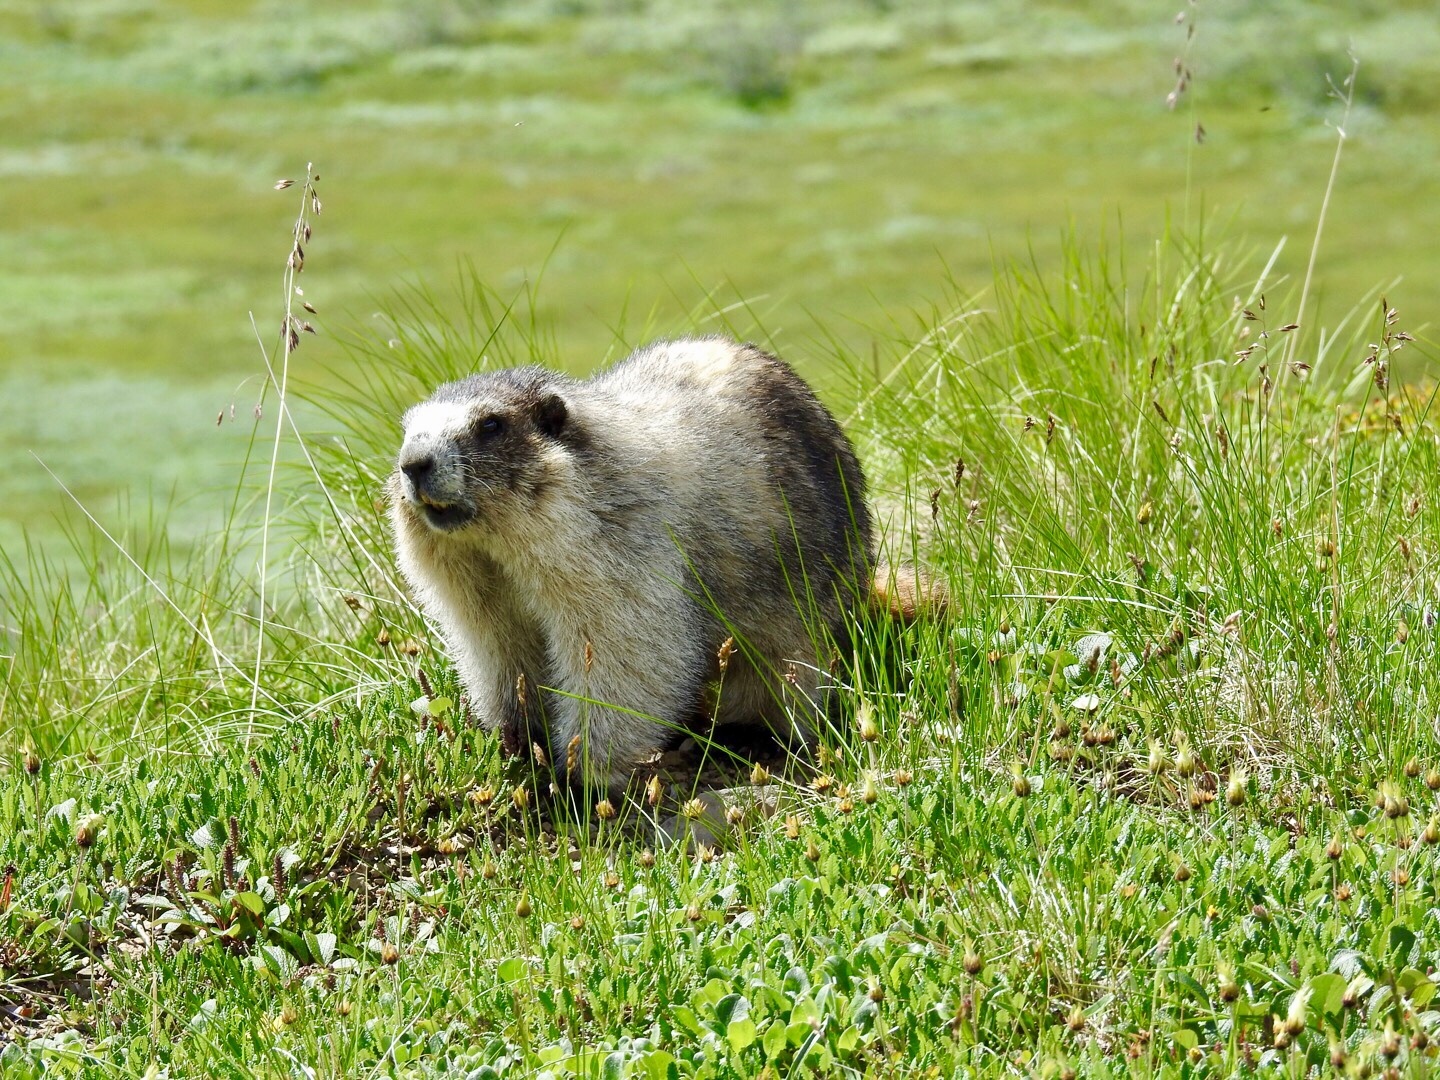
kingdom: Animalia
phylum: Chordata
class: Mammalia
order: Rodentia
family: Sciuridae
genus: Marmota
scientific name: Marmota caligata
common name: Hoary marmot
